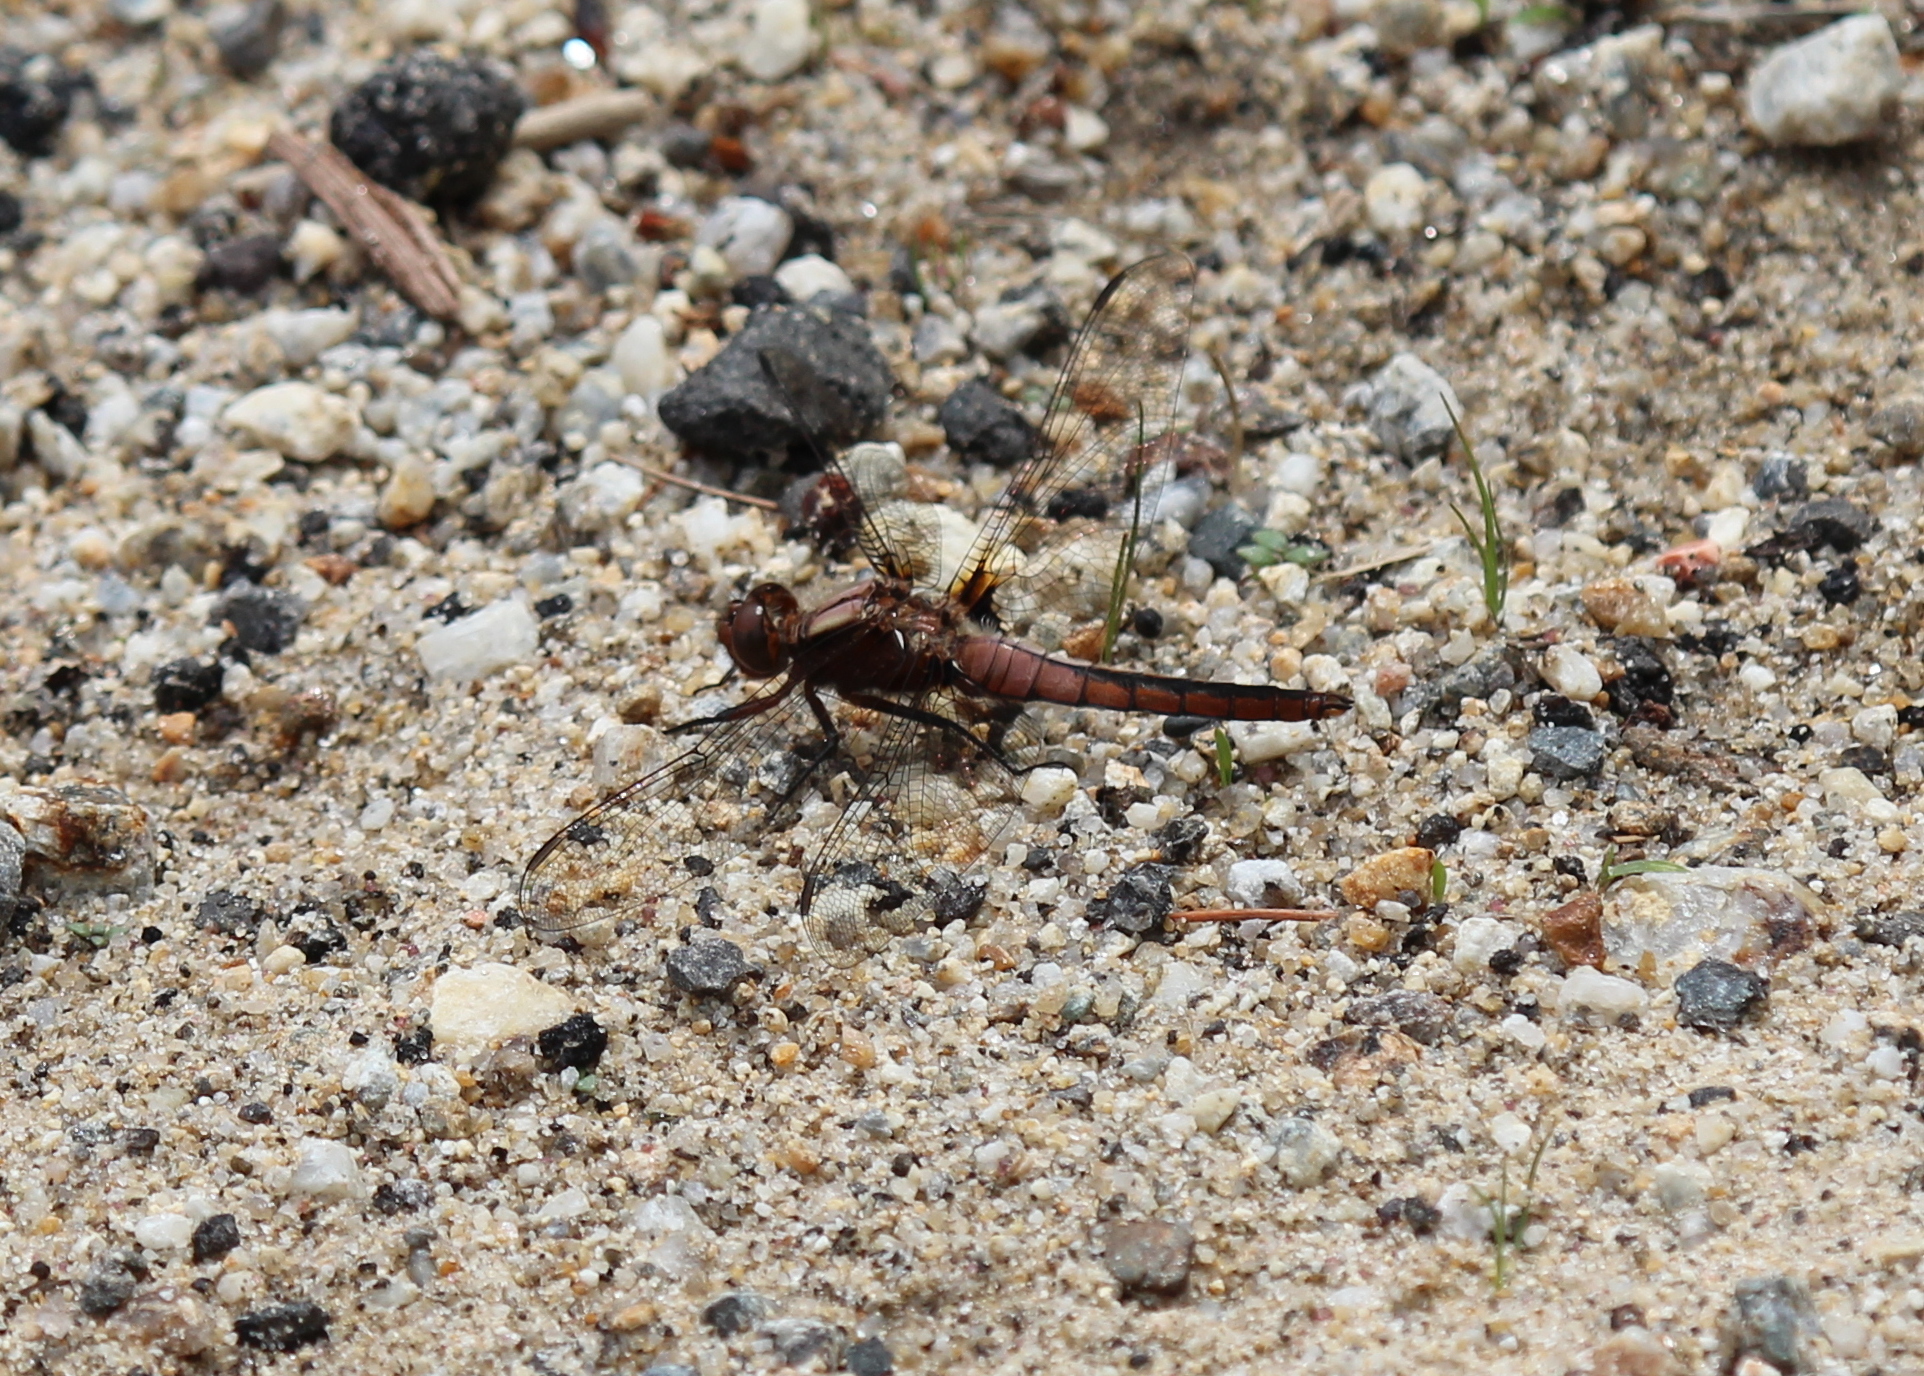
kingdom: Animalia
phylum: Arthropoda
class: Insecta
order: Odonata
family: Libellulidae
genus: Ladona
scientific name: Ladona julia
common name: Chalk-fronted corporal
